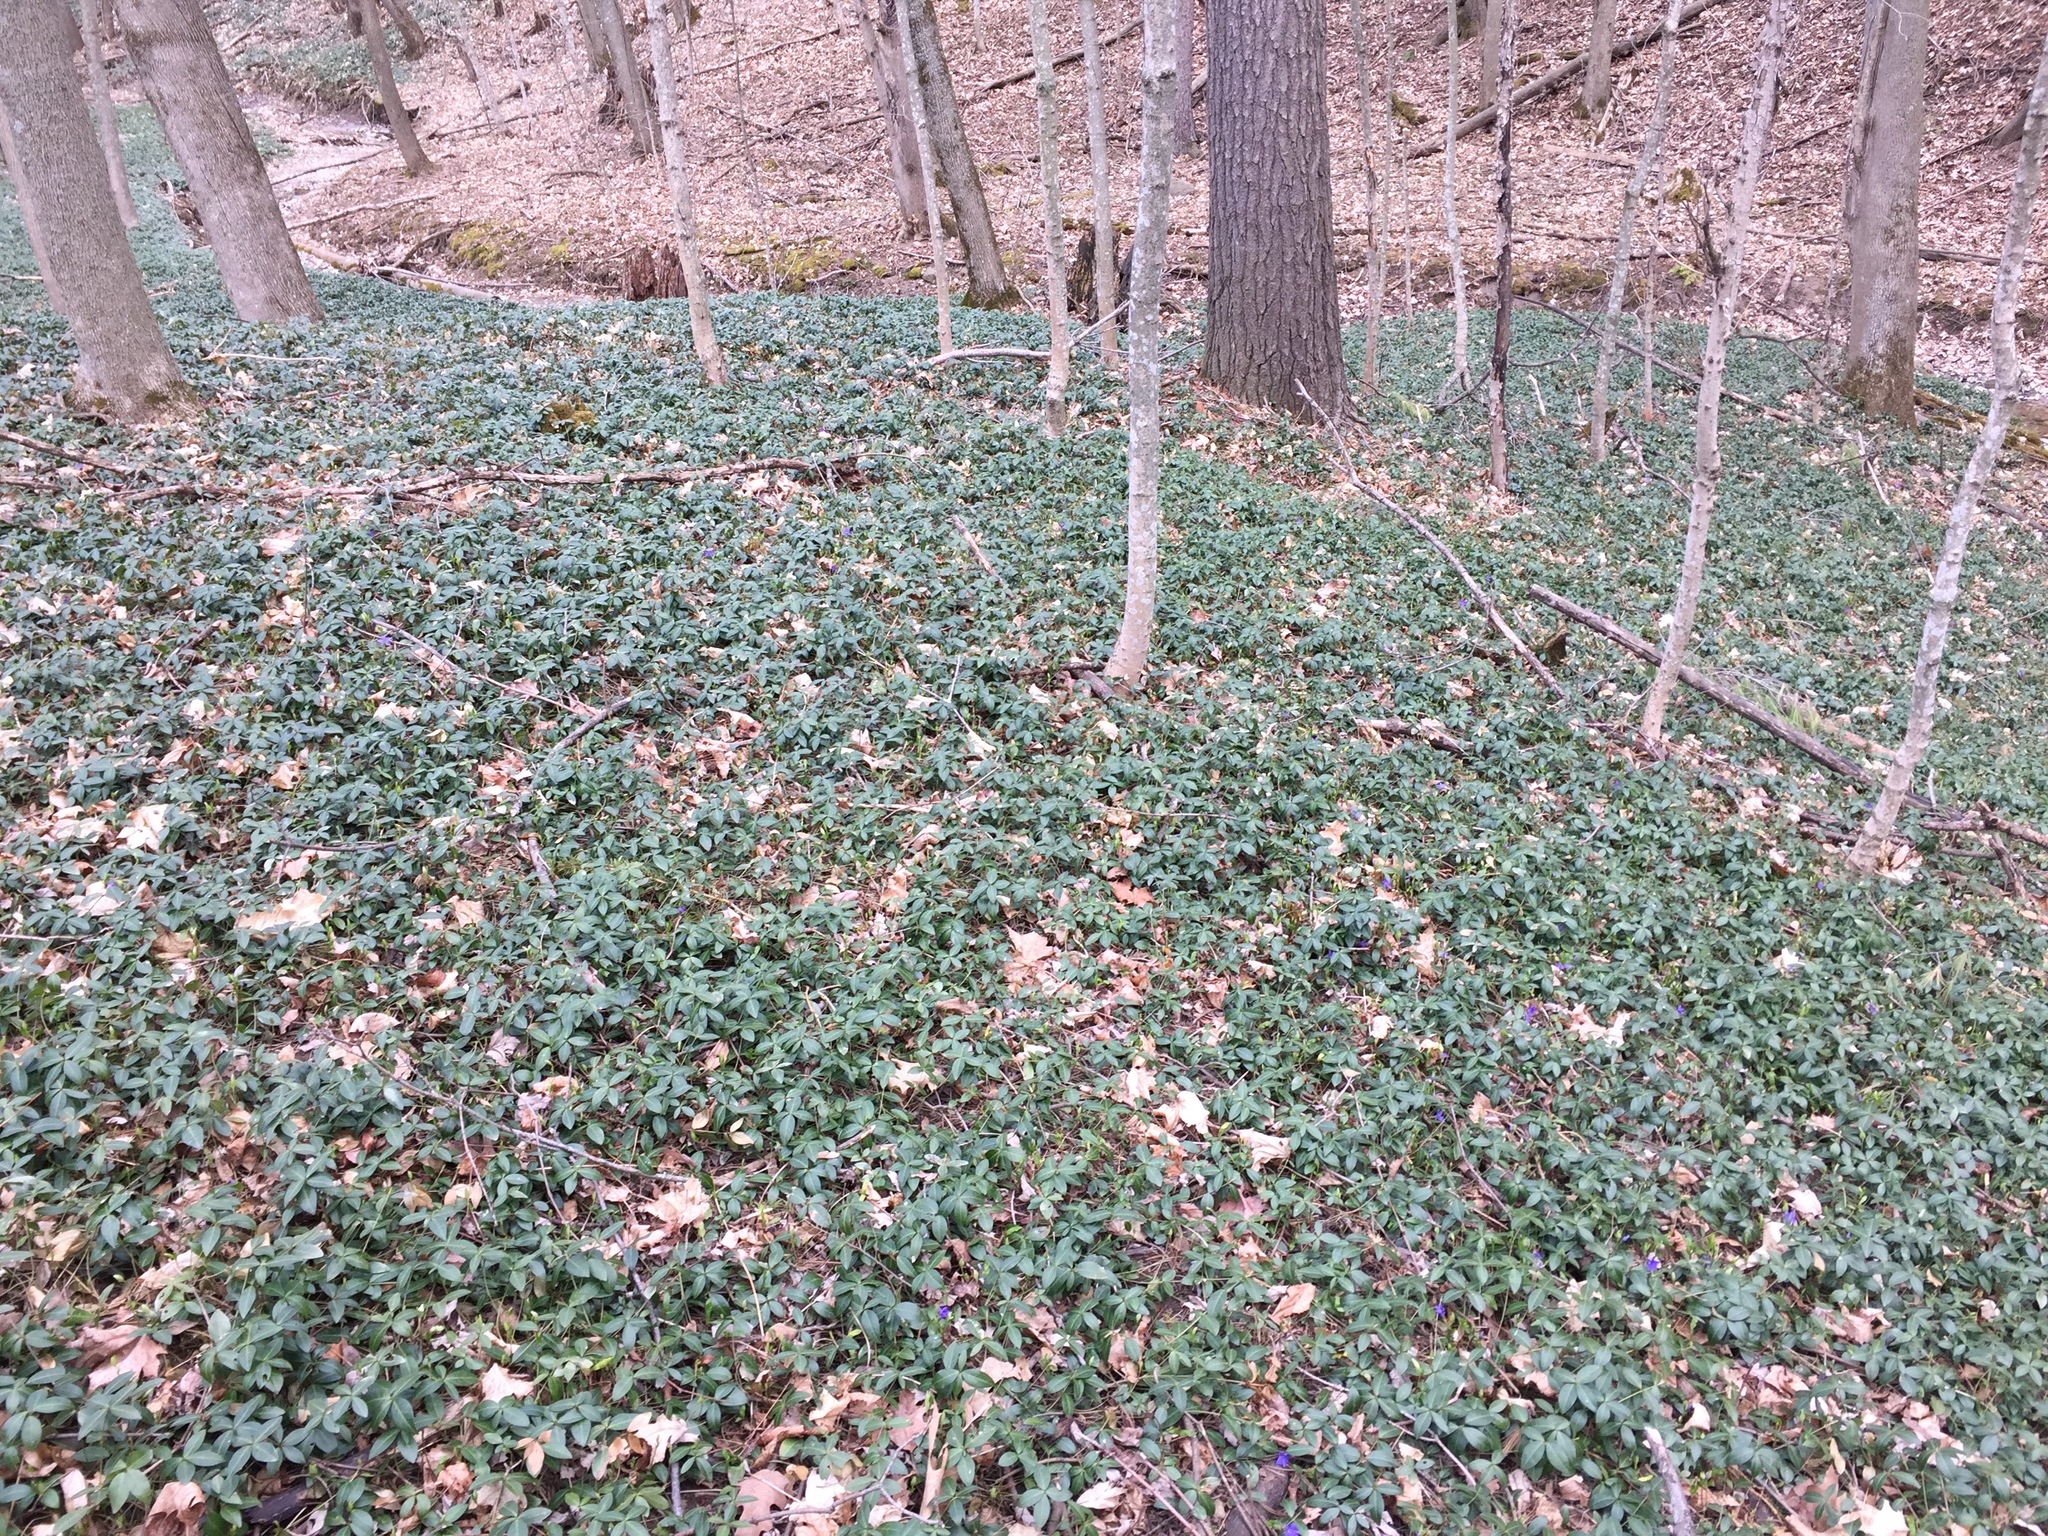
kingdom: Plantae
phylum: Tracheophyta
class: Magnoliopsida
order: Gentianales
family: Apocynaceae
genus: Vinca
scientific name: Vinca minor
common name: Lesser periwinkle
